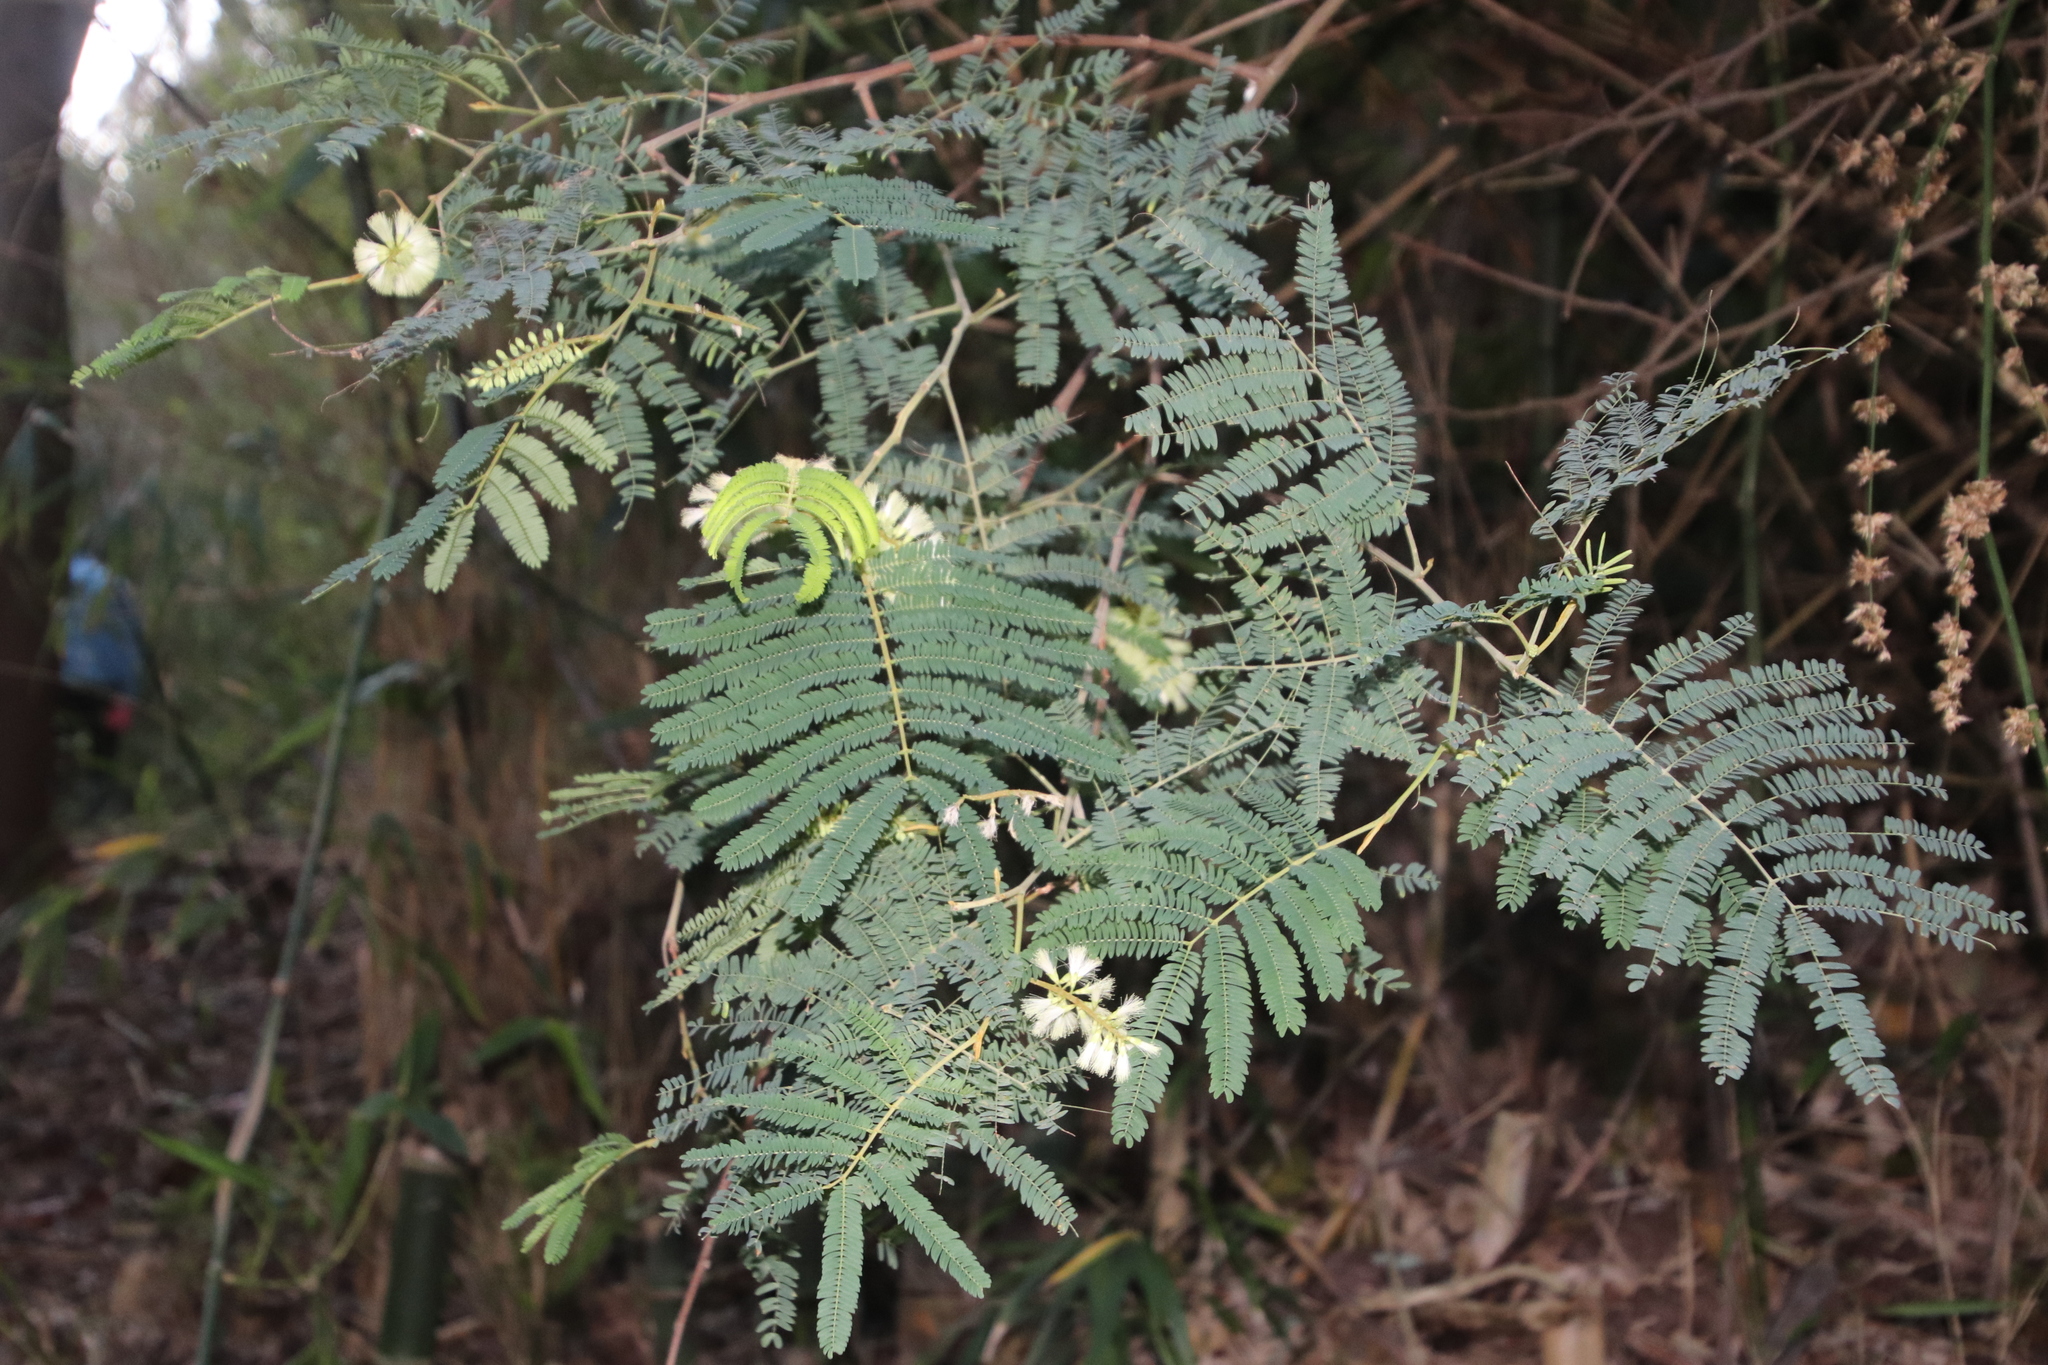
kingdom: Plantae
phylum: Tracheophyta
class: Magnoliopsida
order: Fabales
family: Fabaceae
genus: Paraserianthes
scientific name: Paraserianthes lophantha
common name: Plume albizia
